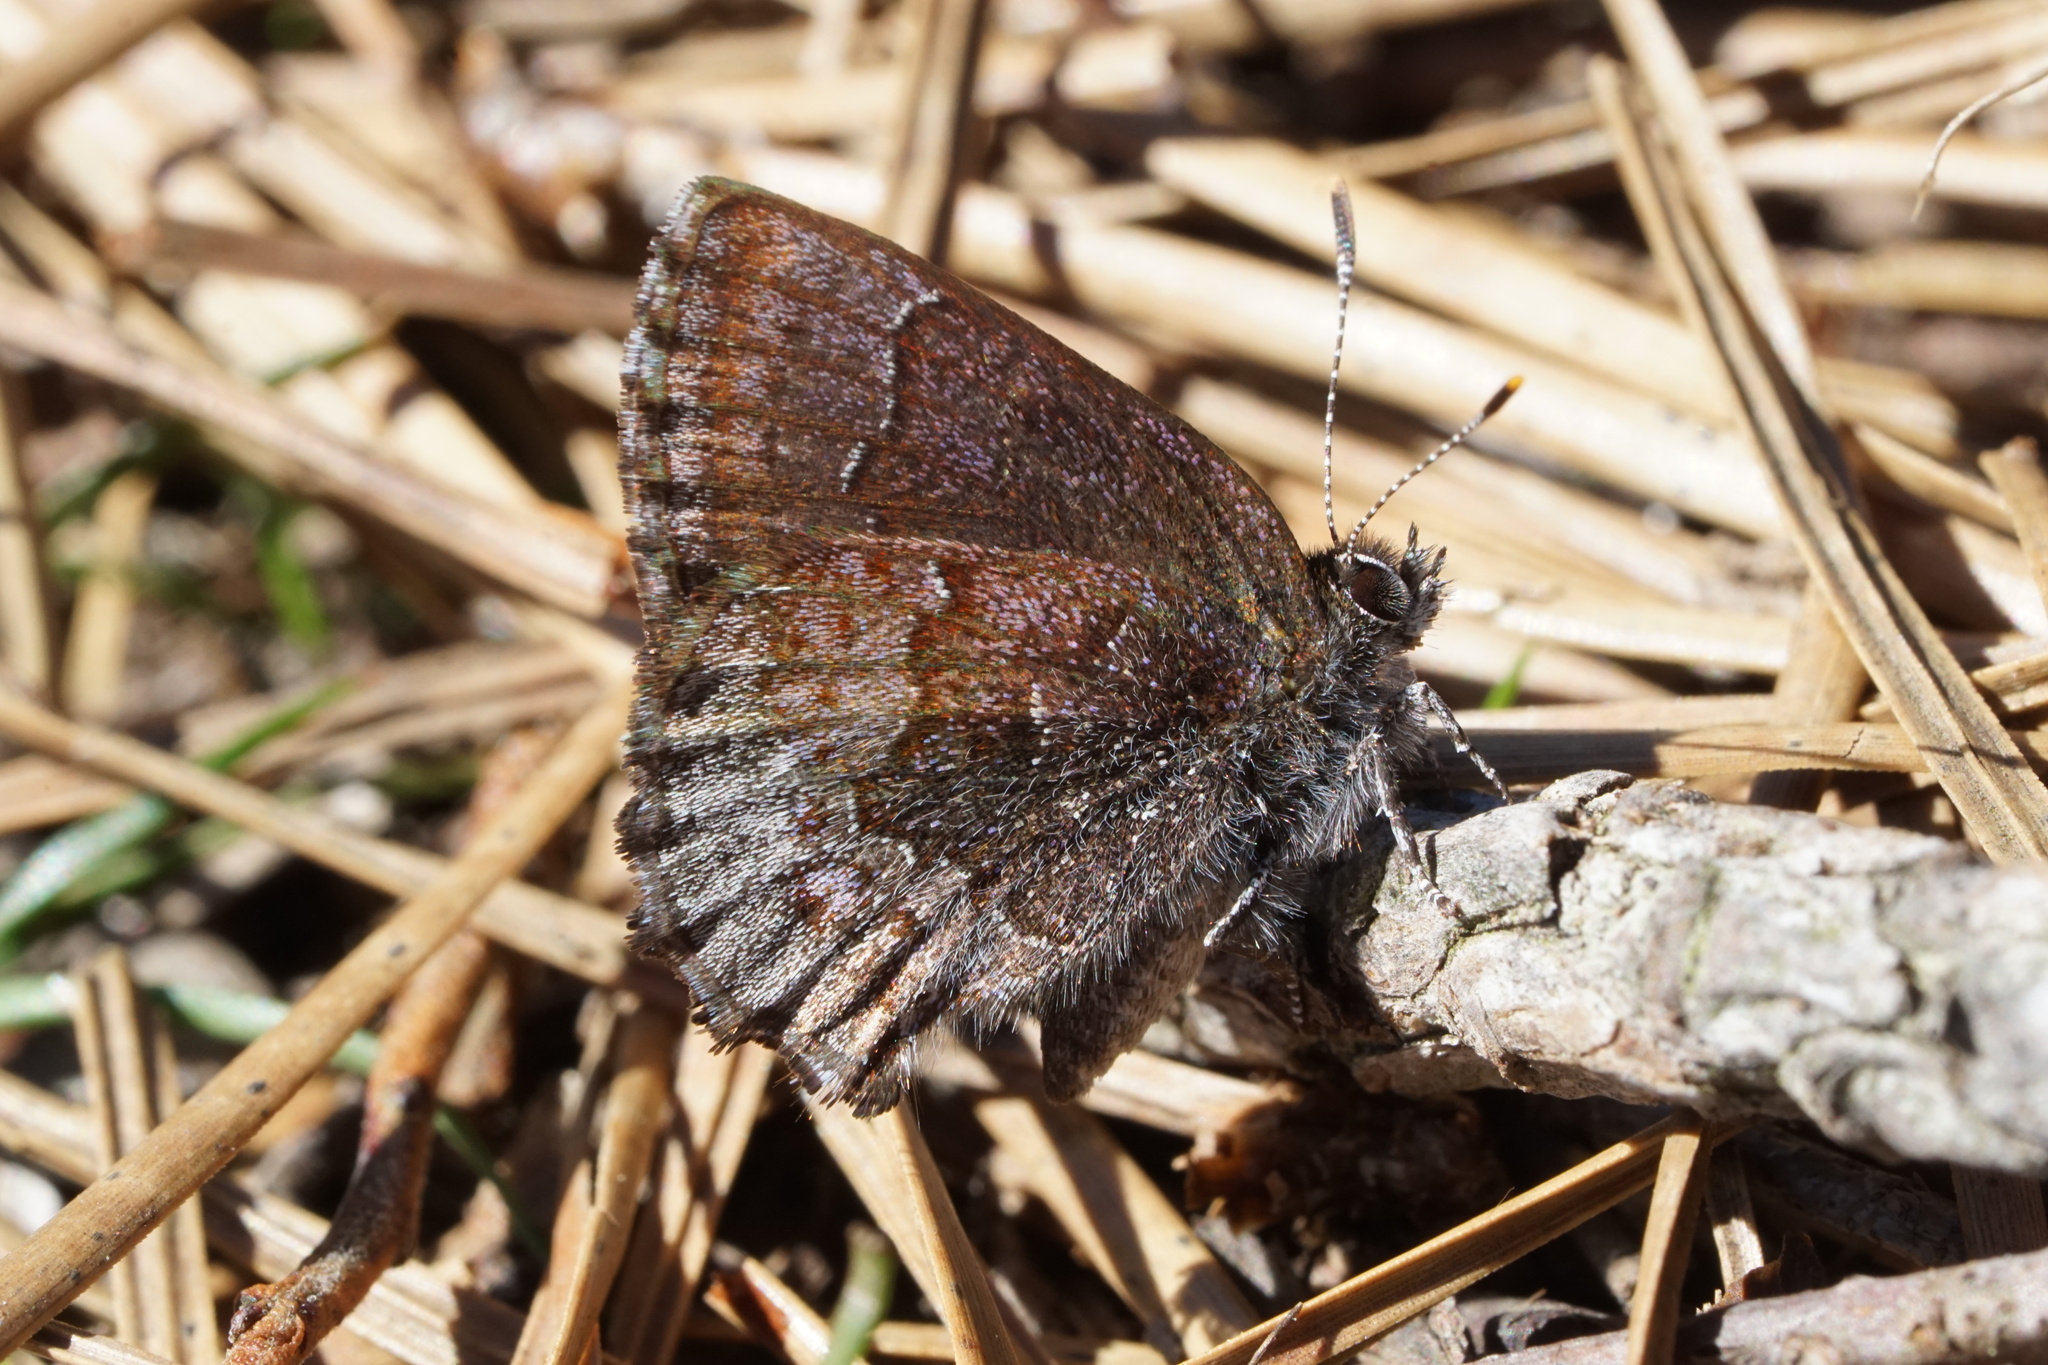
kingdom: Animalia
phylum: Arthropoda
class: Insecta
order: Lepidoptera
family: Lycaenidae
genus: Callophrys
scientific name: Callophrys polios
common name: Hoary elfin
